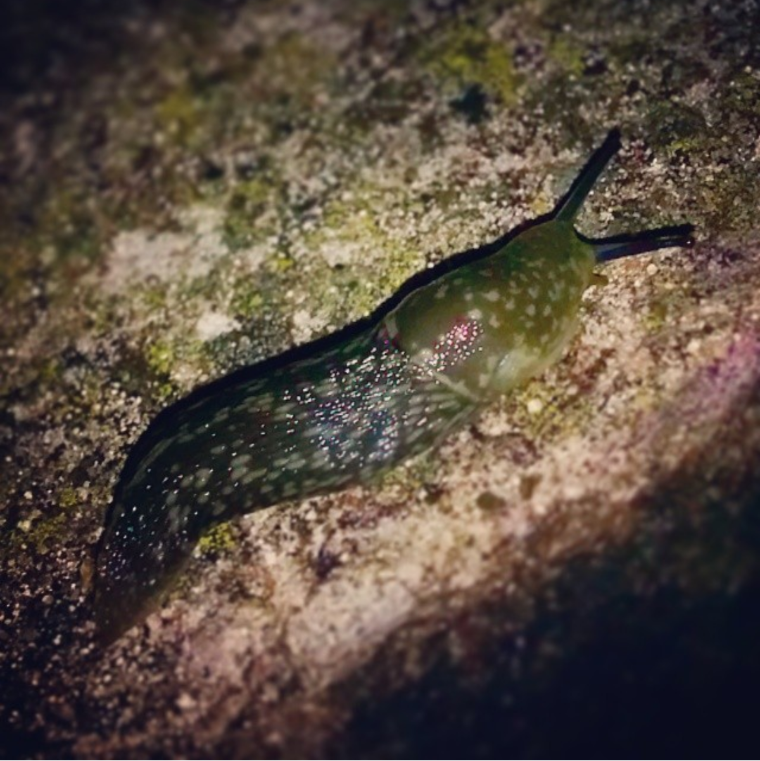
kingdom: Animalia
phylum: Mollusca
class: Gastropoda
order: Stylommatophora
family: Limacidae
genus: Limacus
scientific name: Limacus flavus
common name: Yellow gardenslug
